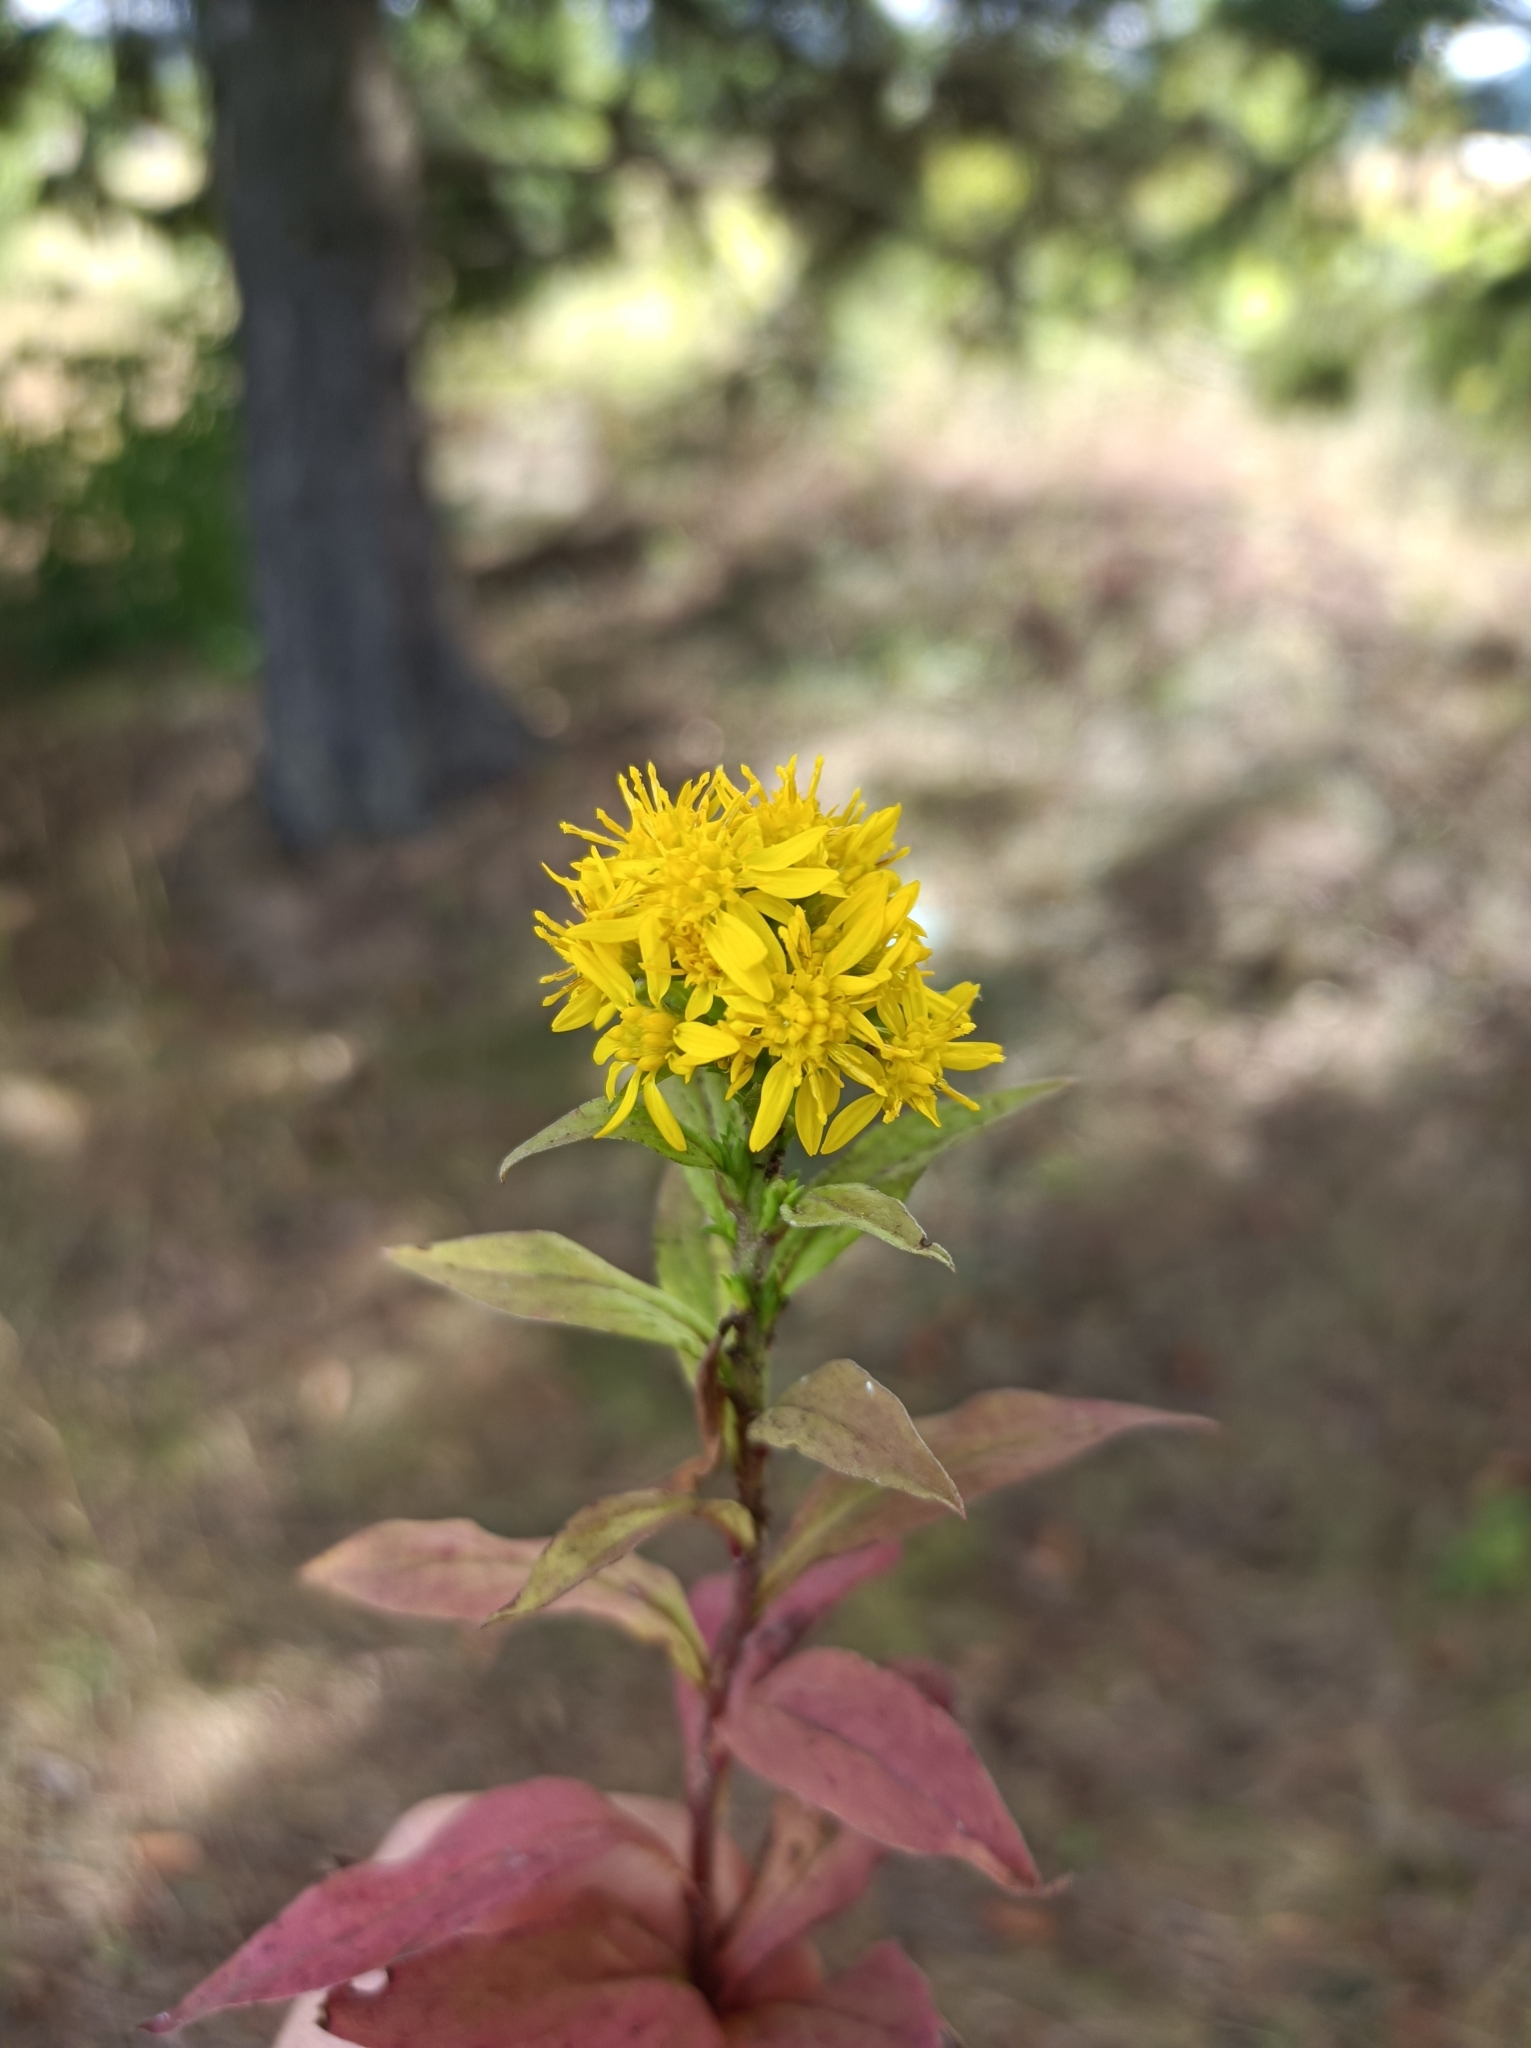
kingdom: Plantae
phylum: Tracheophyta
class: Magnoliopsida
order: Asterales
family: Asteraceae
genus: Solidago
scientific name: Solidago virgaurea
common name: Goldenrod
